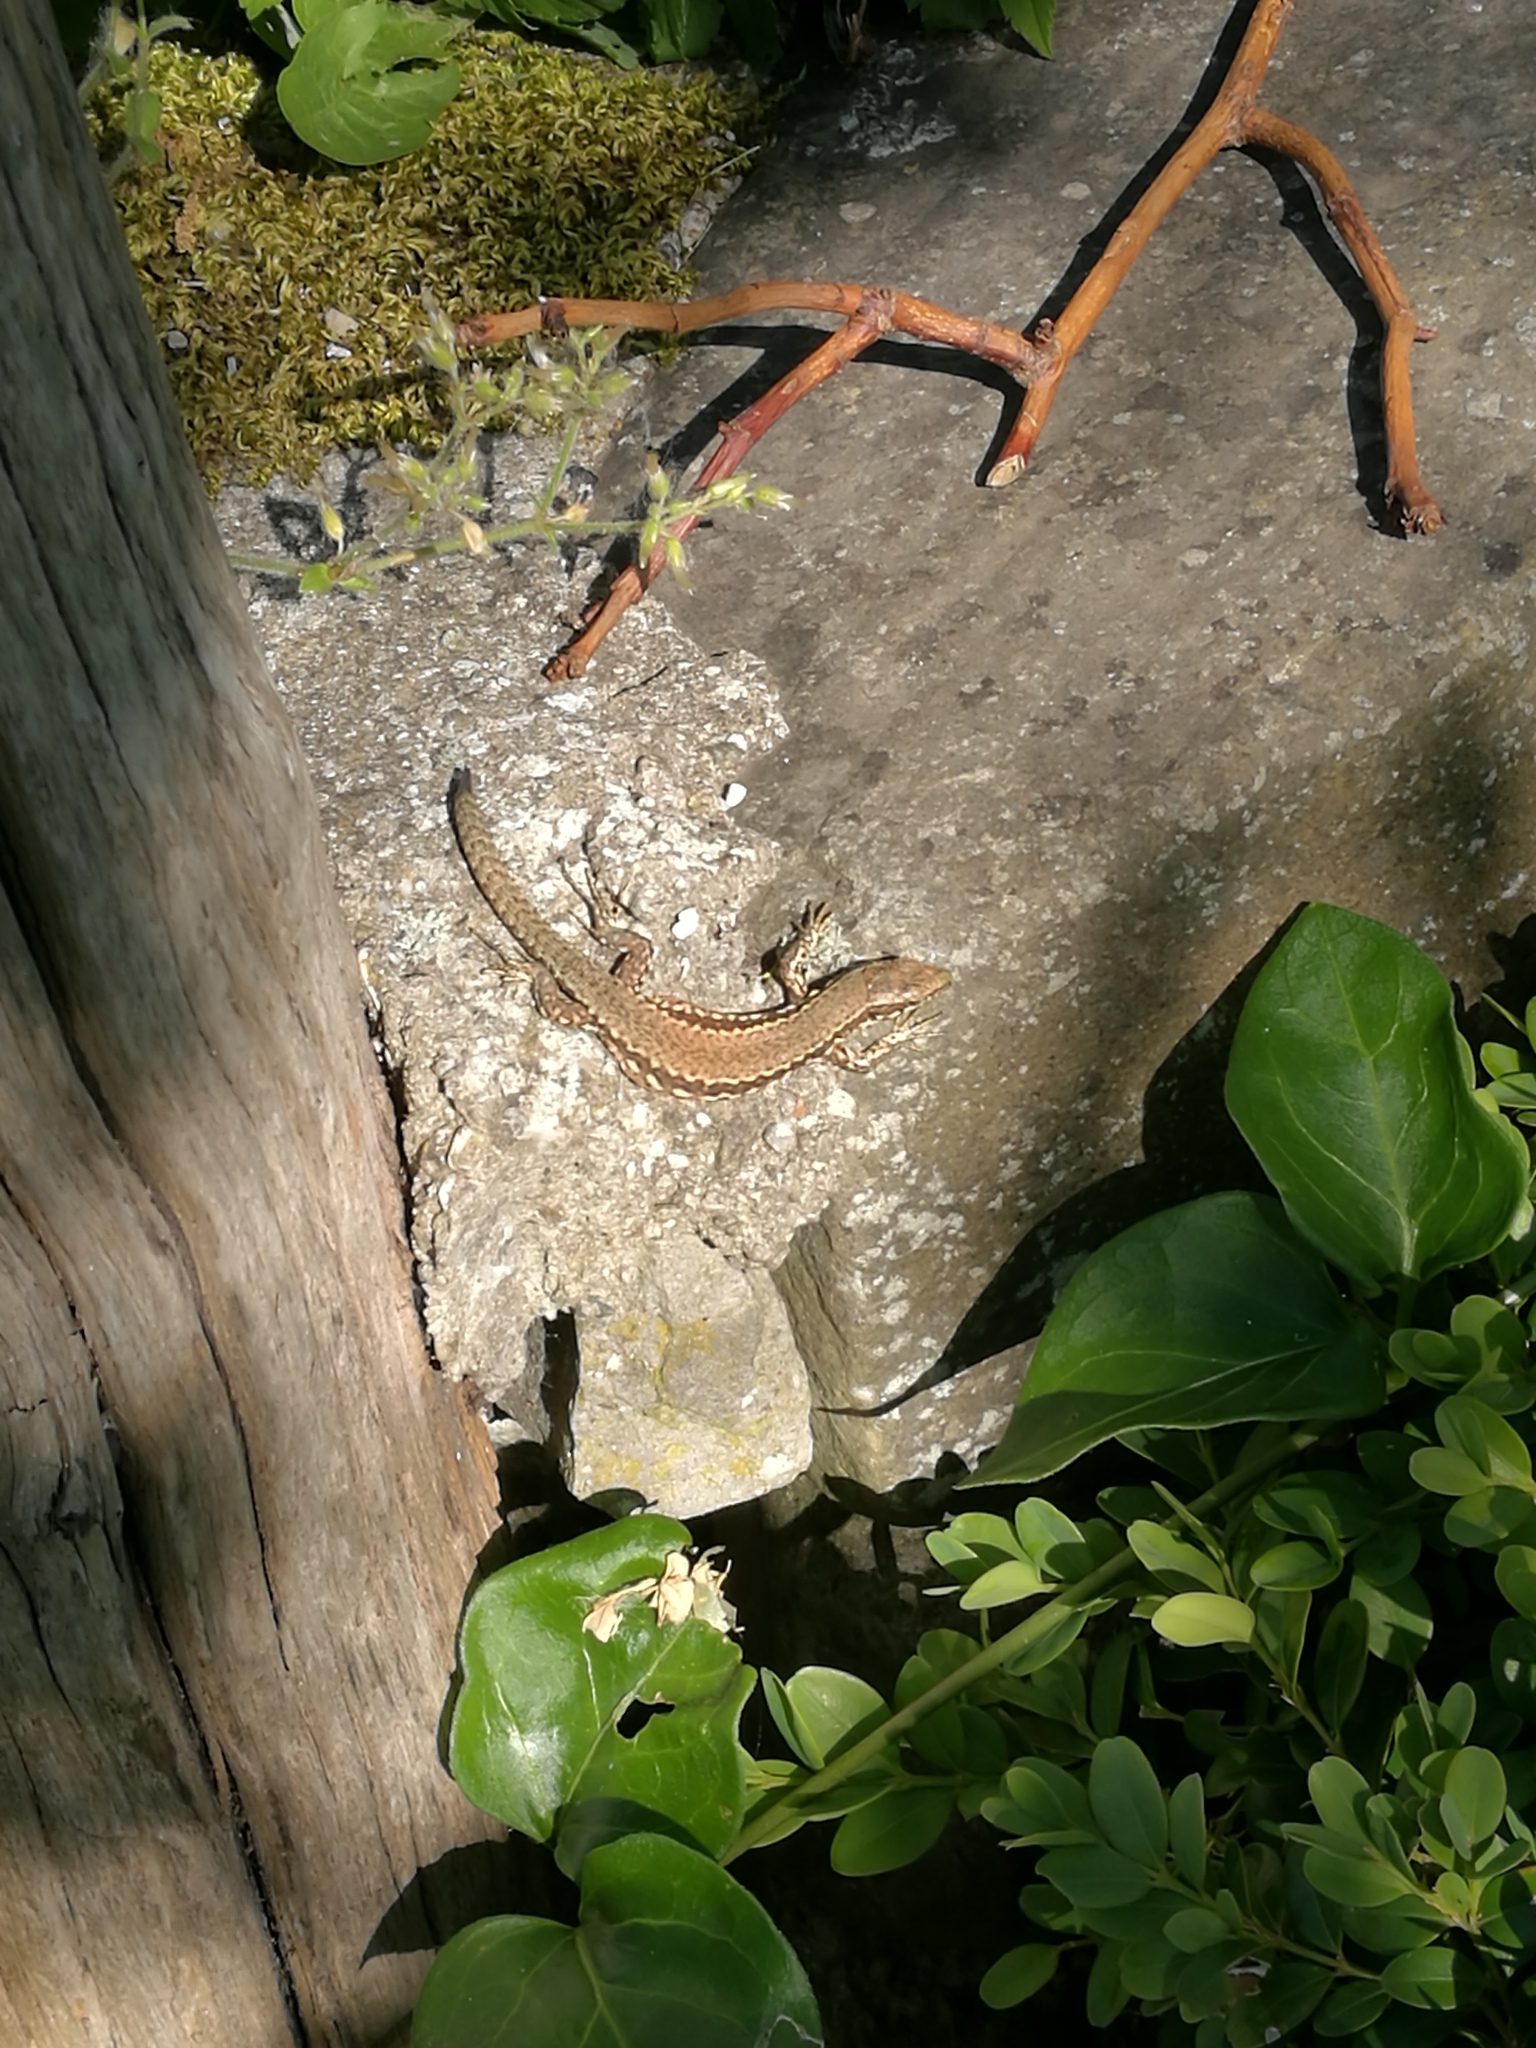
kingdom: Animalia
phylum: Chordata
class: Squamata
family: Lacertidae
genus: Podarcis
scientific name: Podarcis muralis
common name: Common wall lizard
